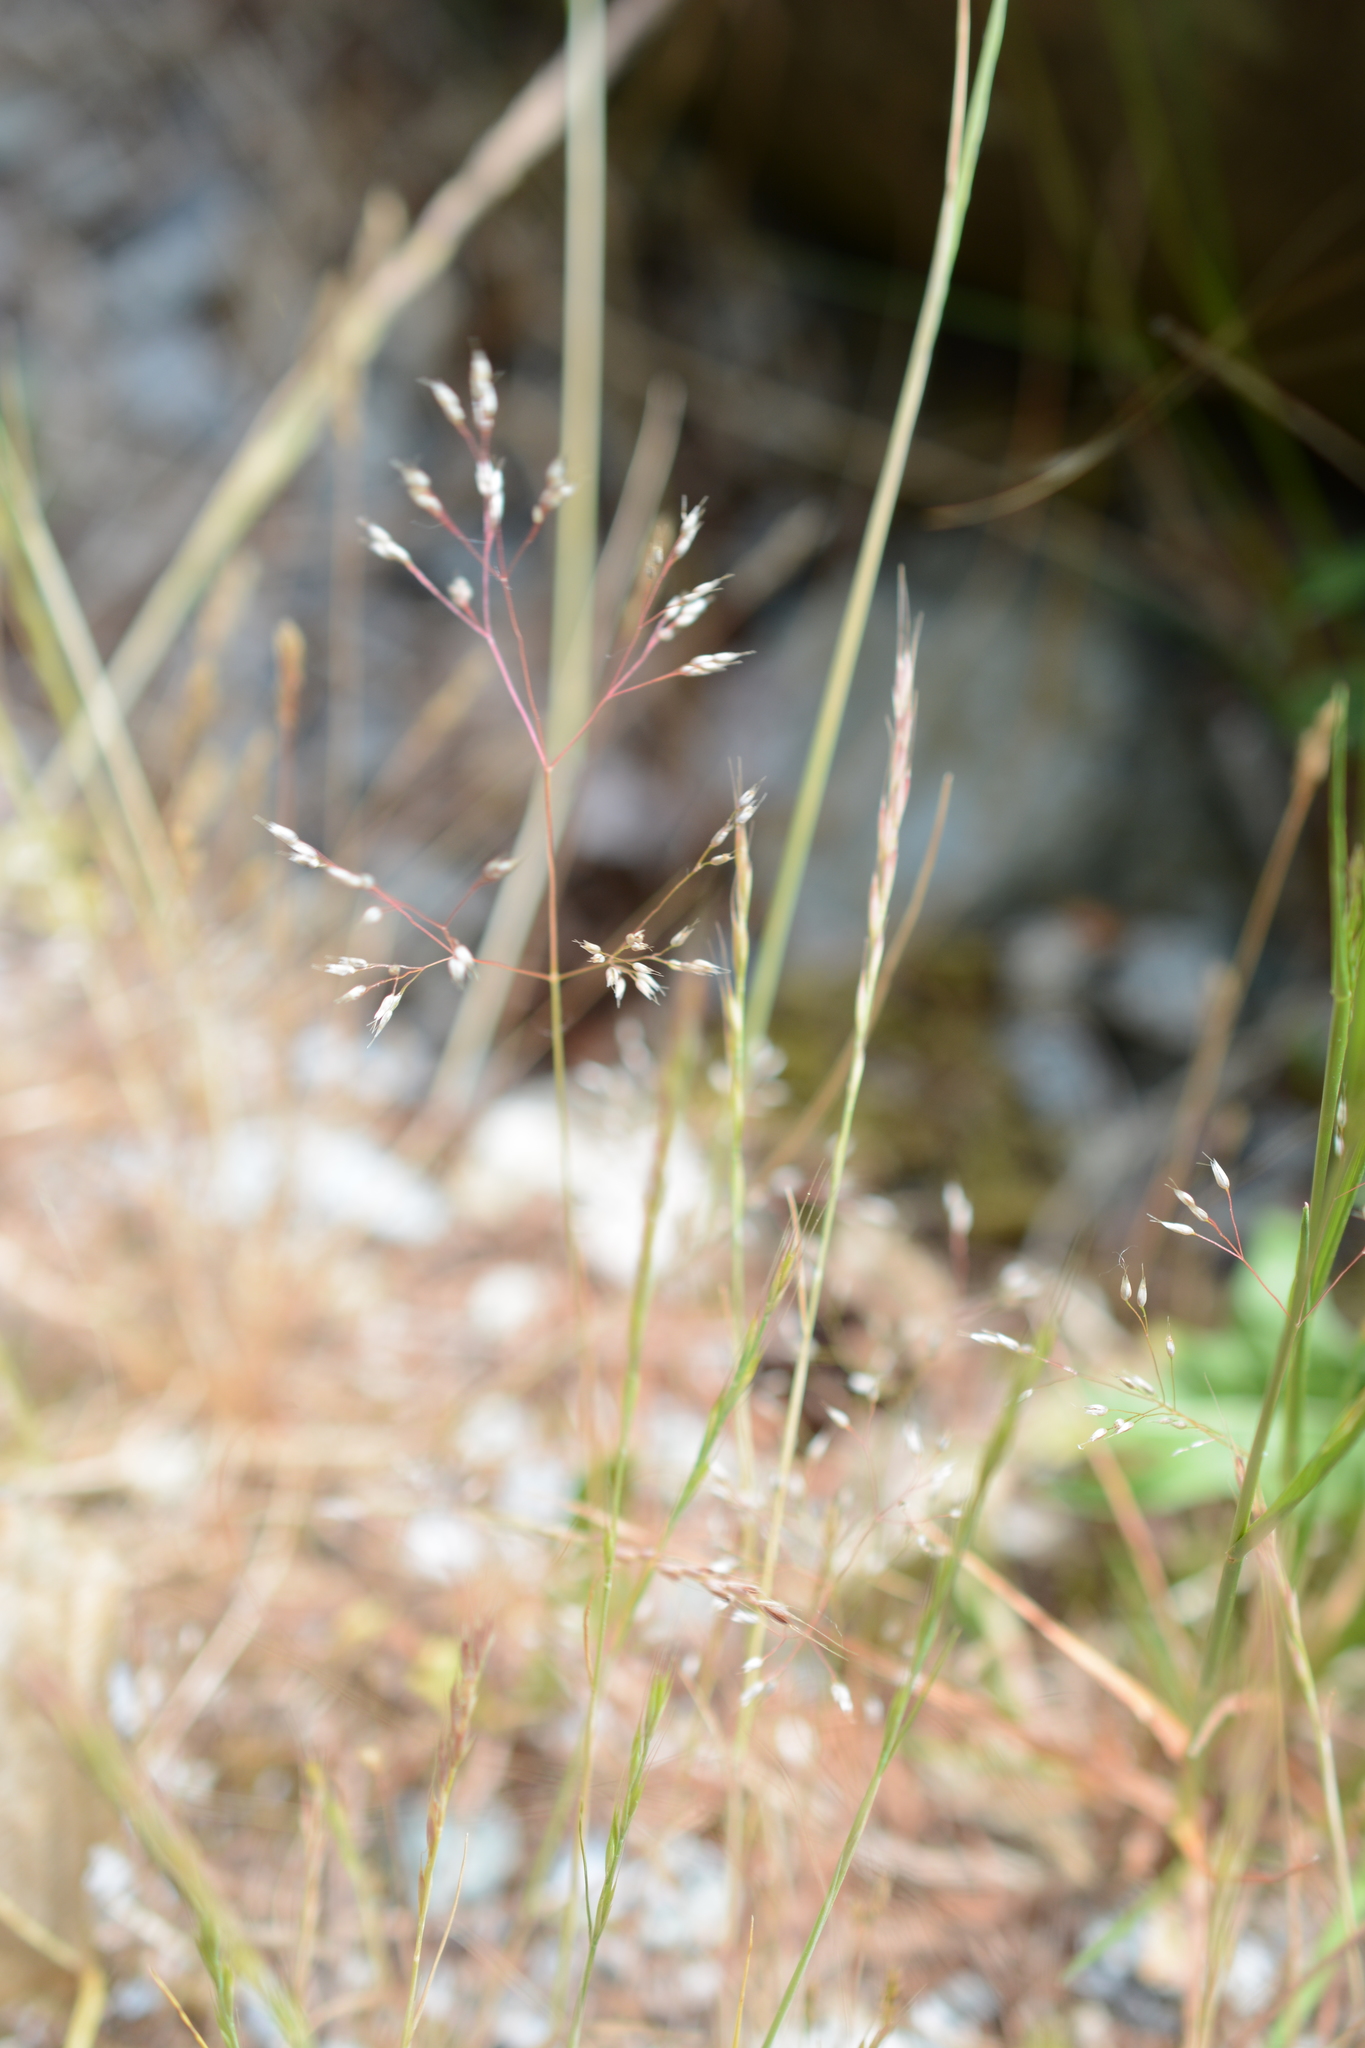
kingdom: Plantae
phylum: Tracheophyta
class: Liliopsida
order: Poales
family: Poaceae
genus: Aira
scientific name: Aira caryophyllea
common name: Silver hairgrass
